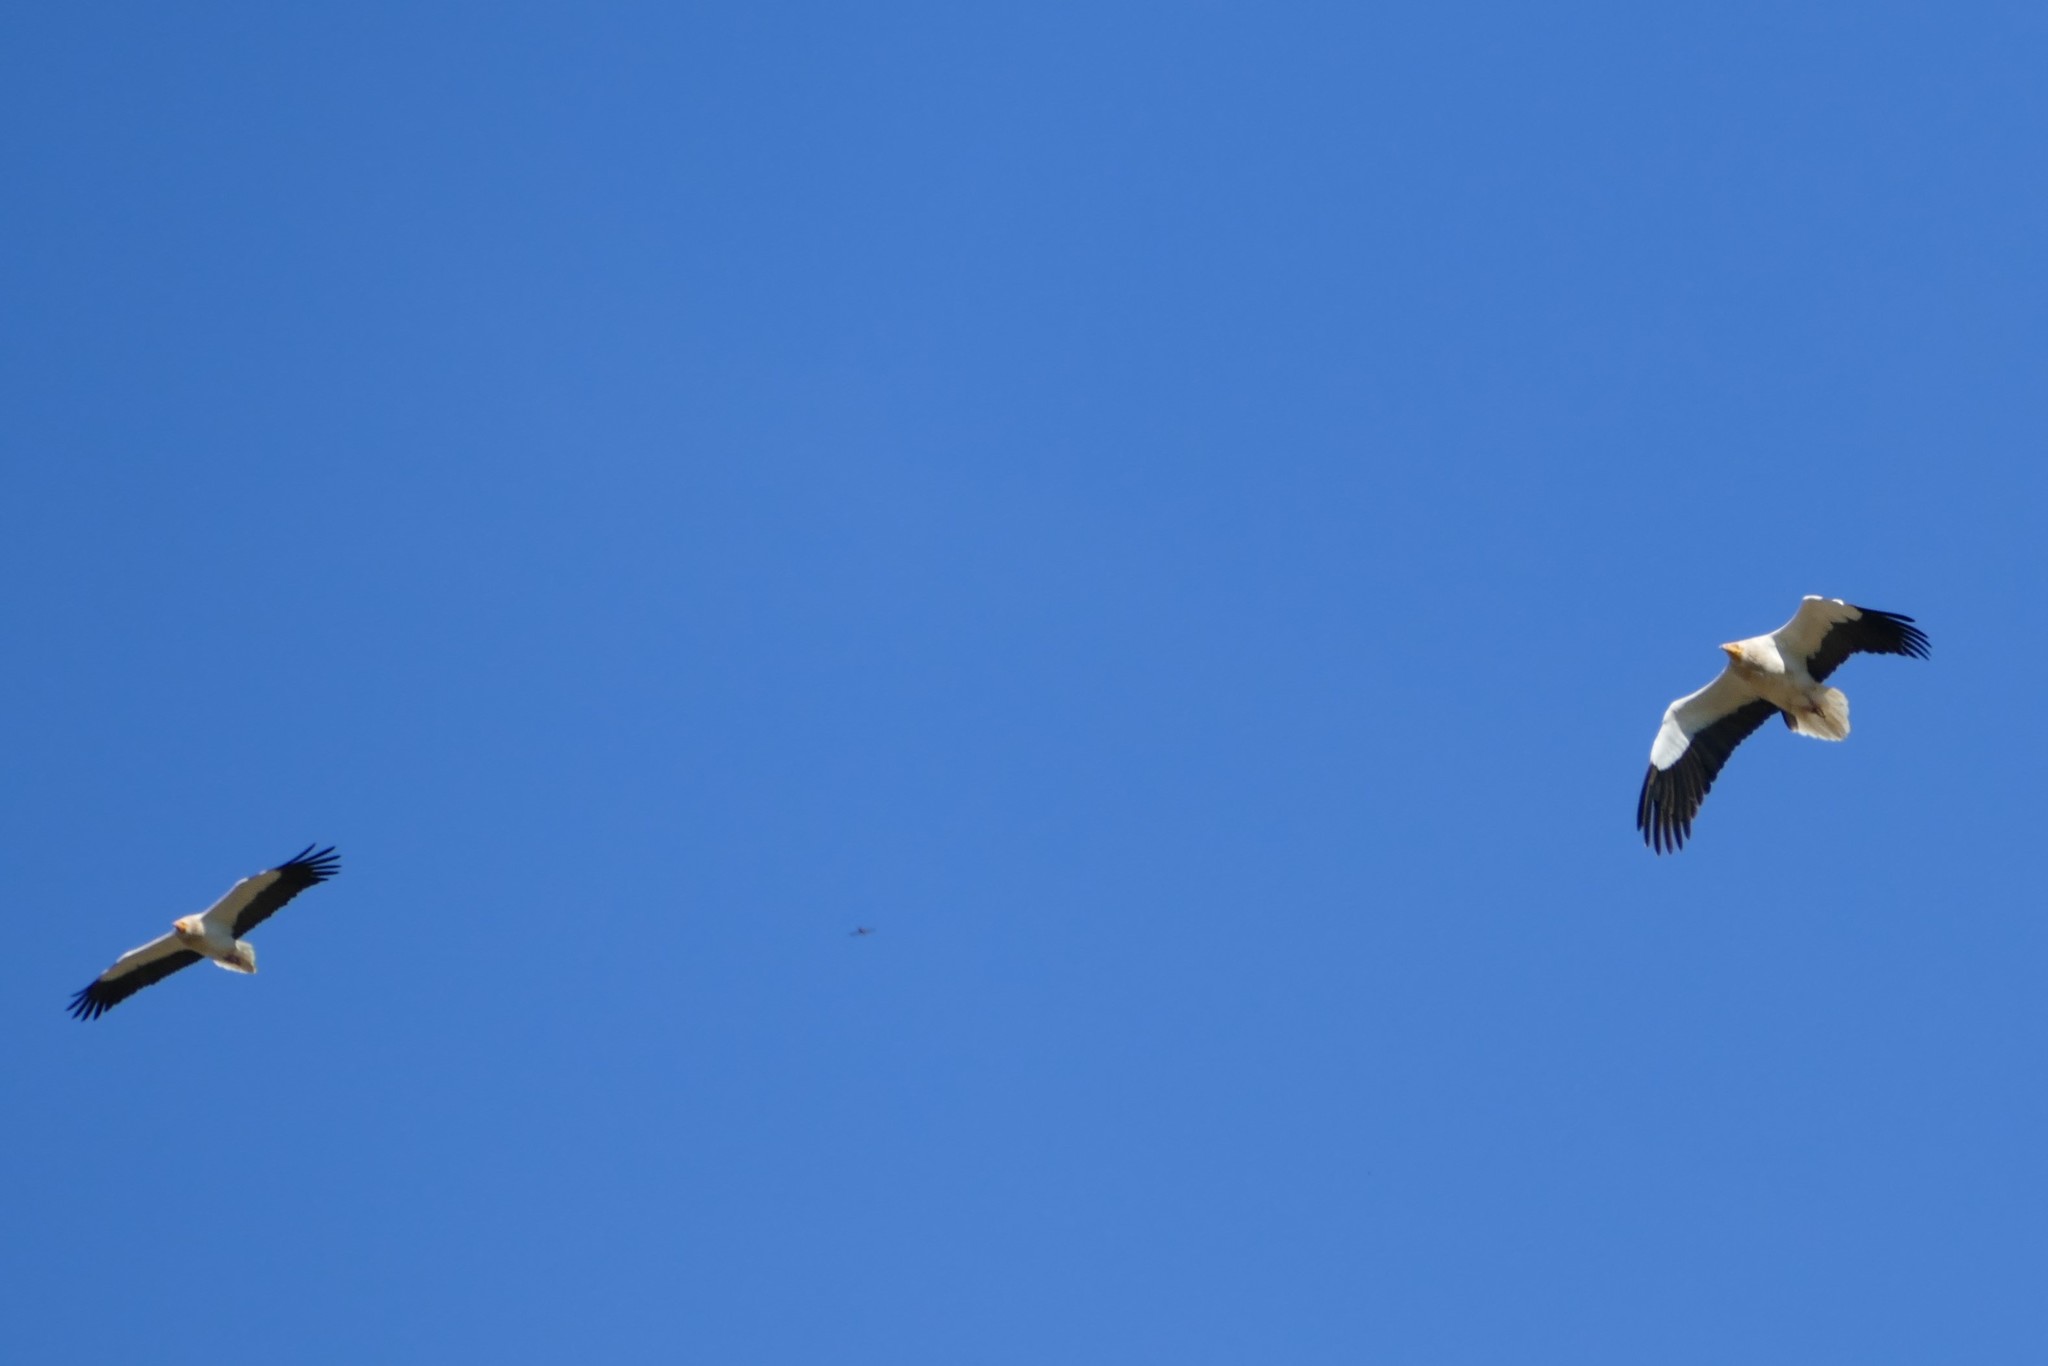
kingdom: Animalia
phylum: Chordata
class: Aves
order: Accipitriformes
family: Accipitridae
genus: Neophron
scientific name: Neophron percnopterus
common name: Egyptian vulture
